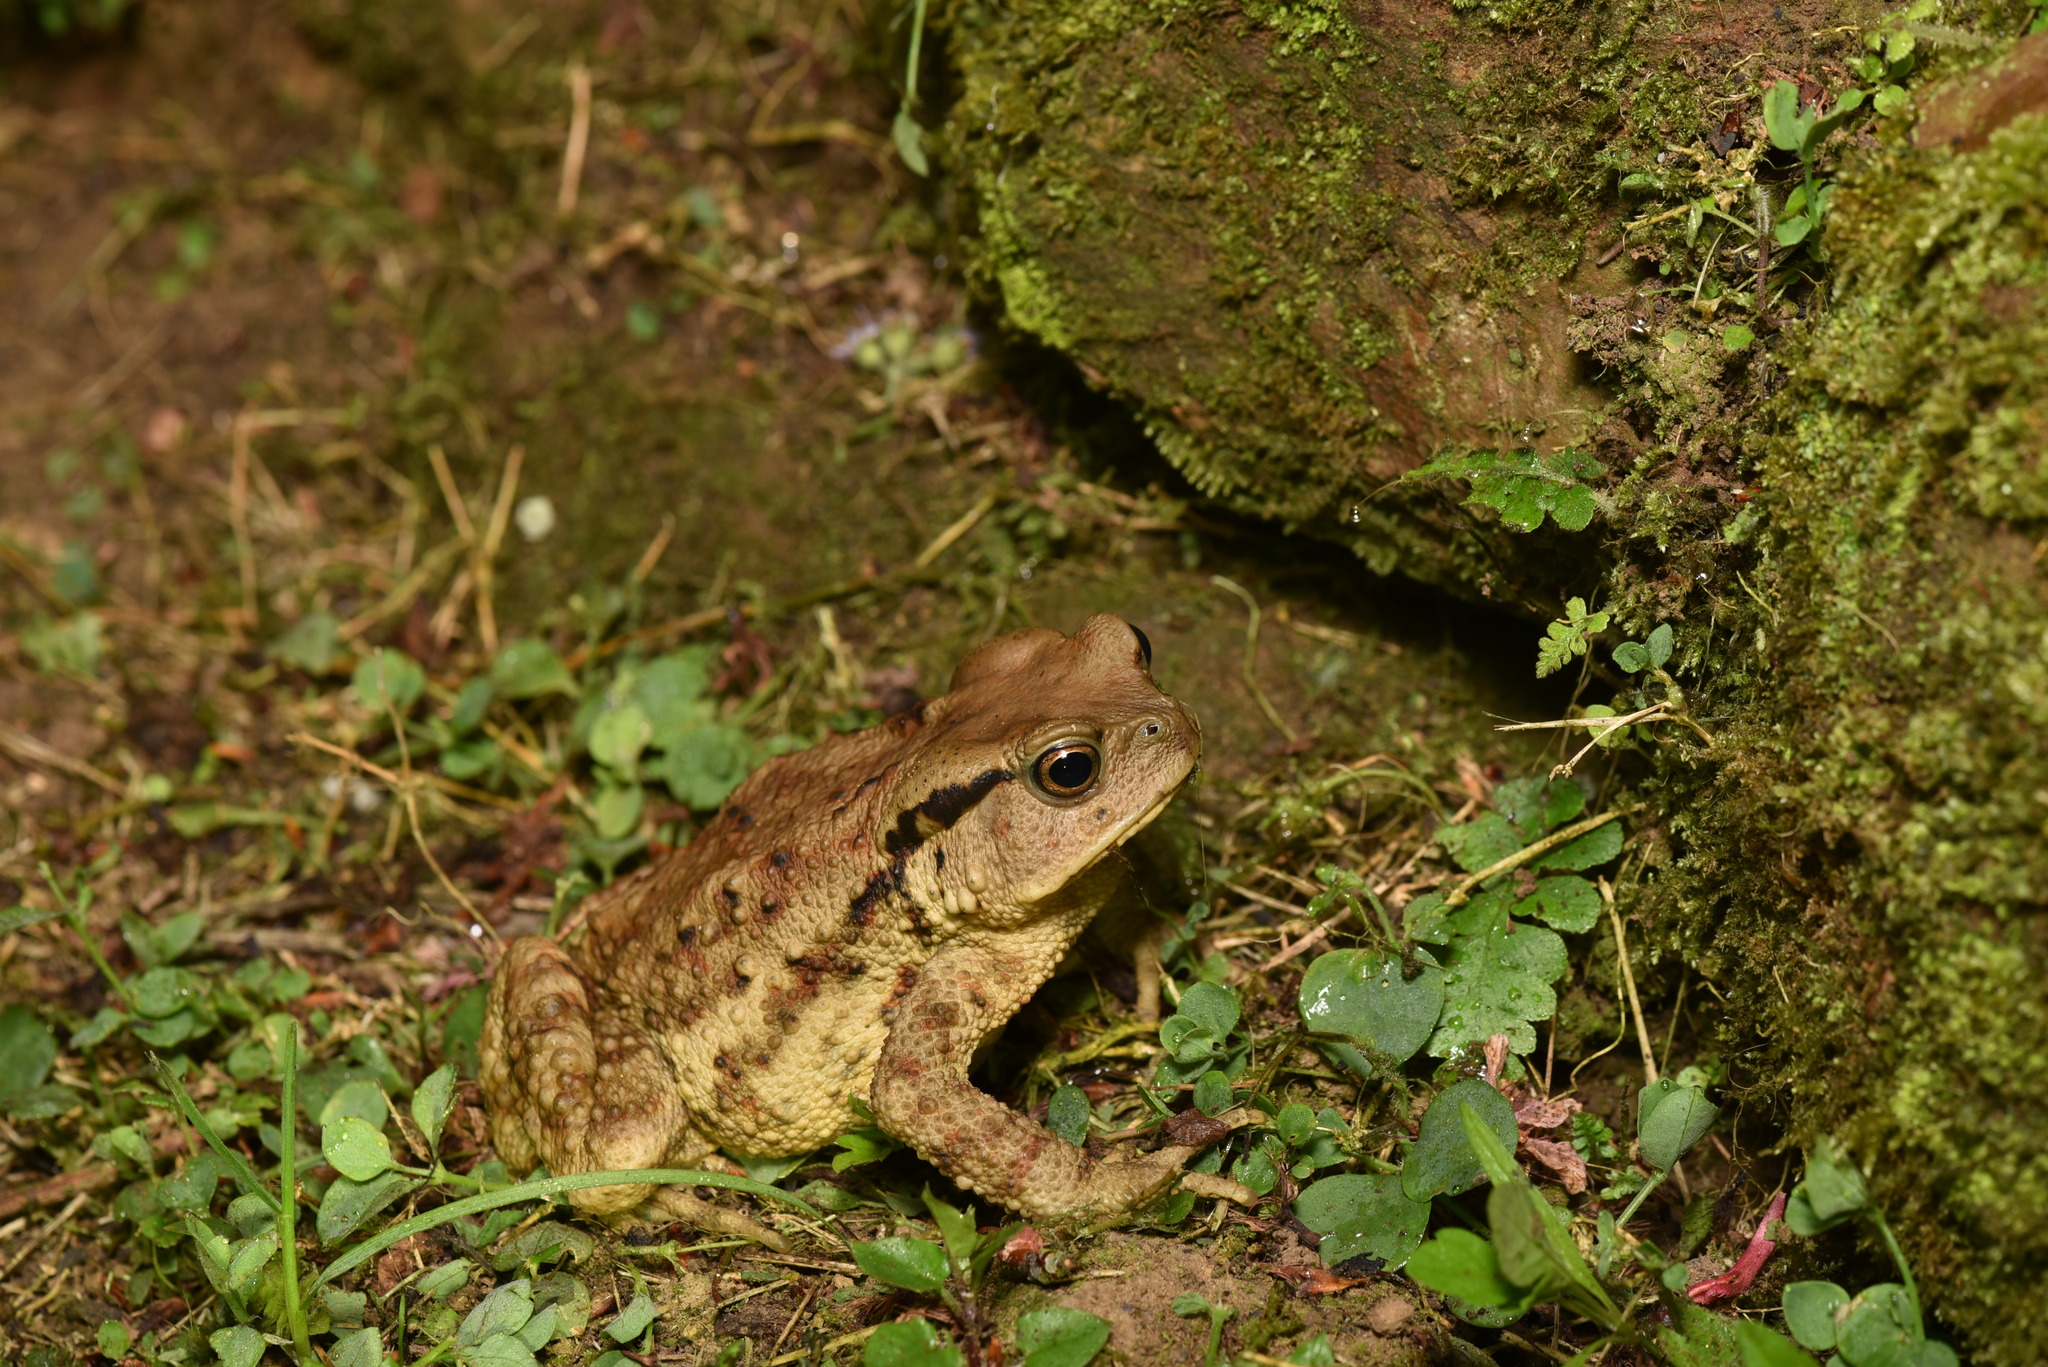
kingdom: Animalia
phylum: Chordata
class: Amphibia
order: Anura
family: Bufonidae
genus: Bufo
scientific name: Bufo bankorensis
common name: Bankor toad
